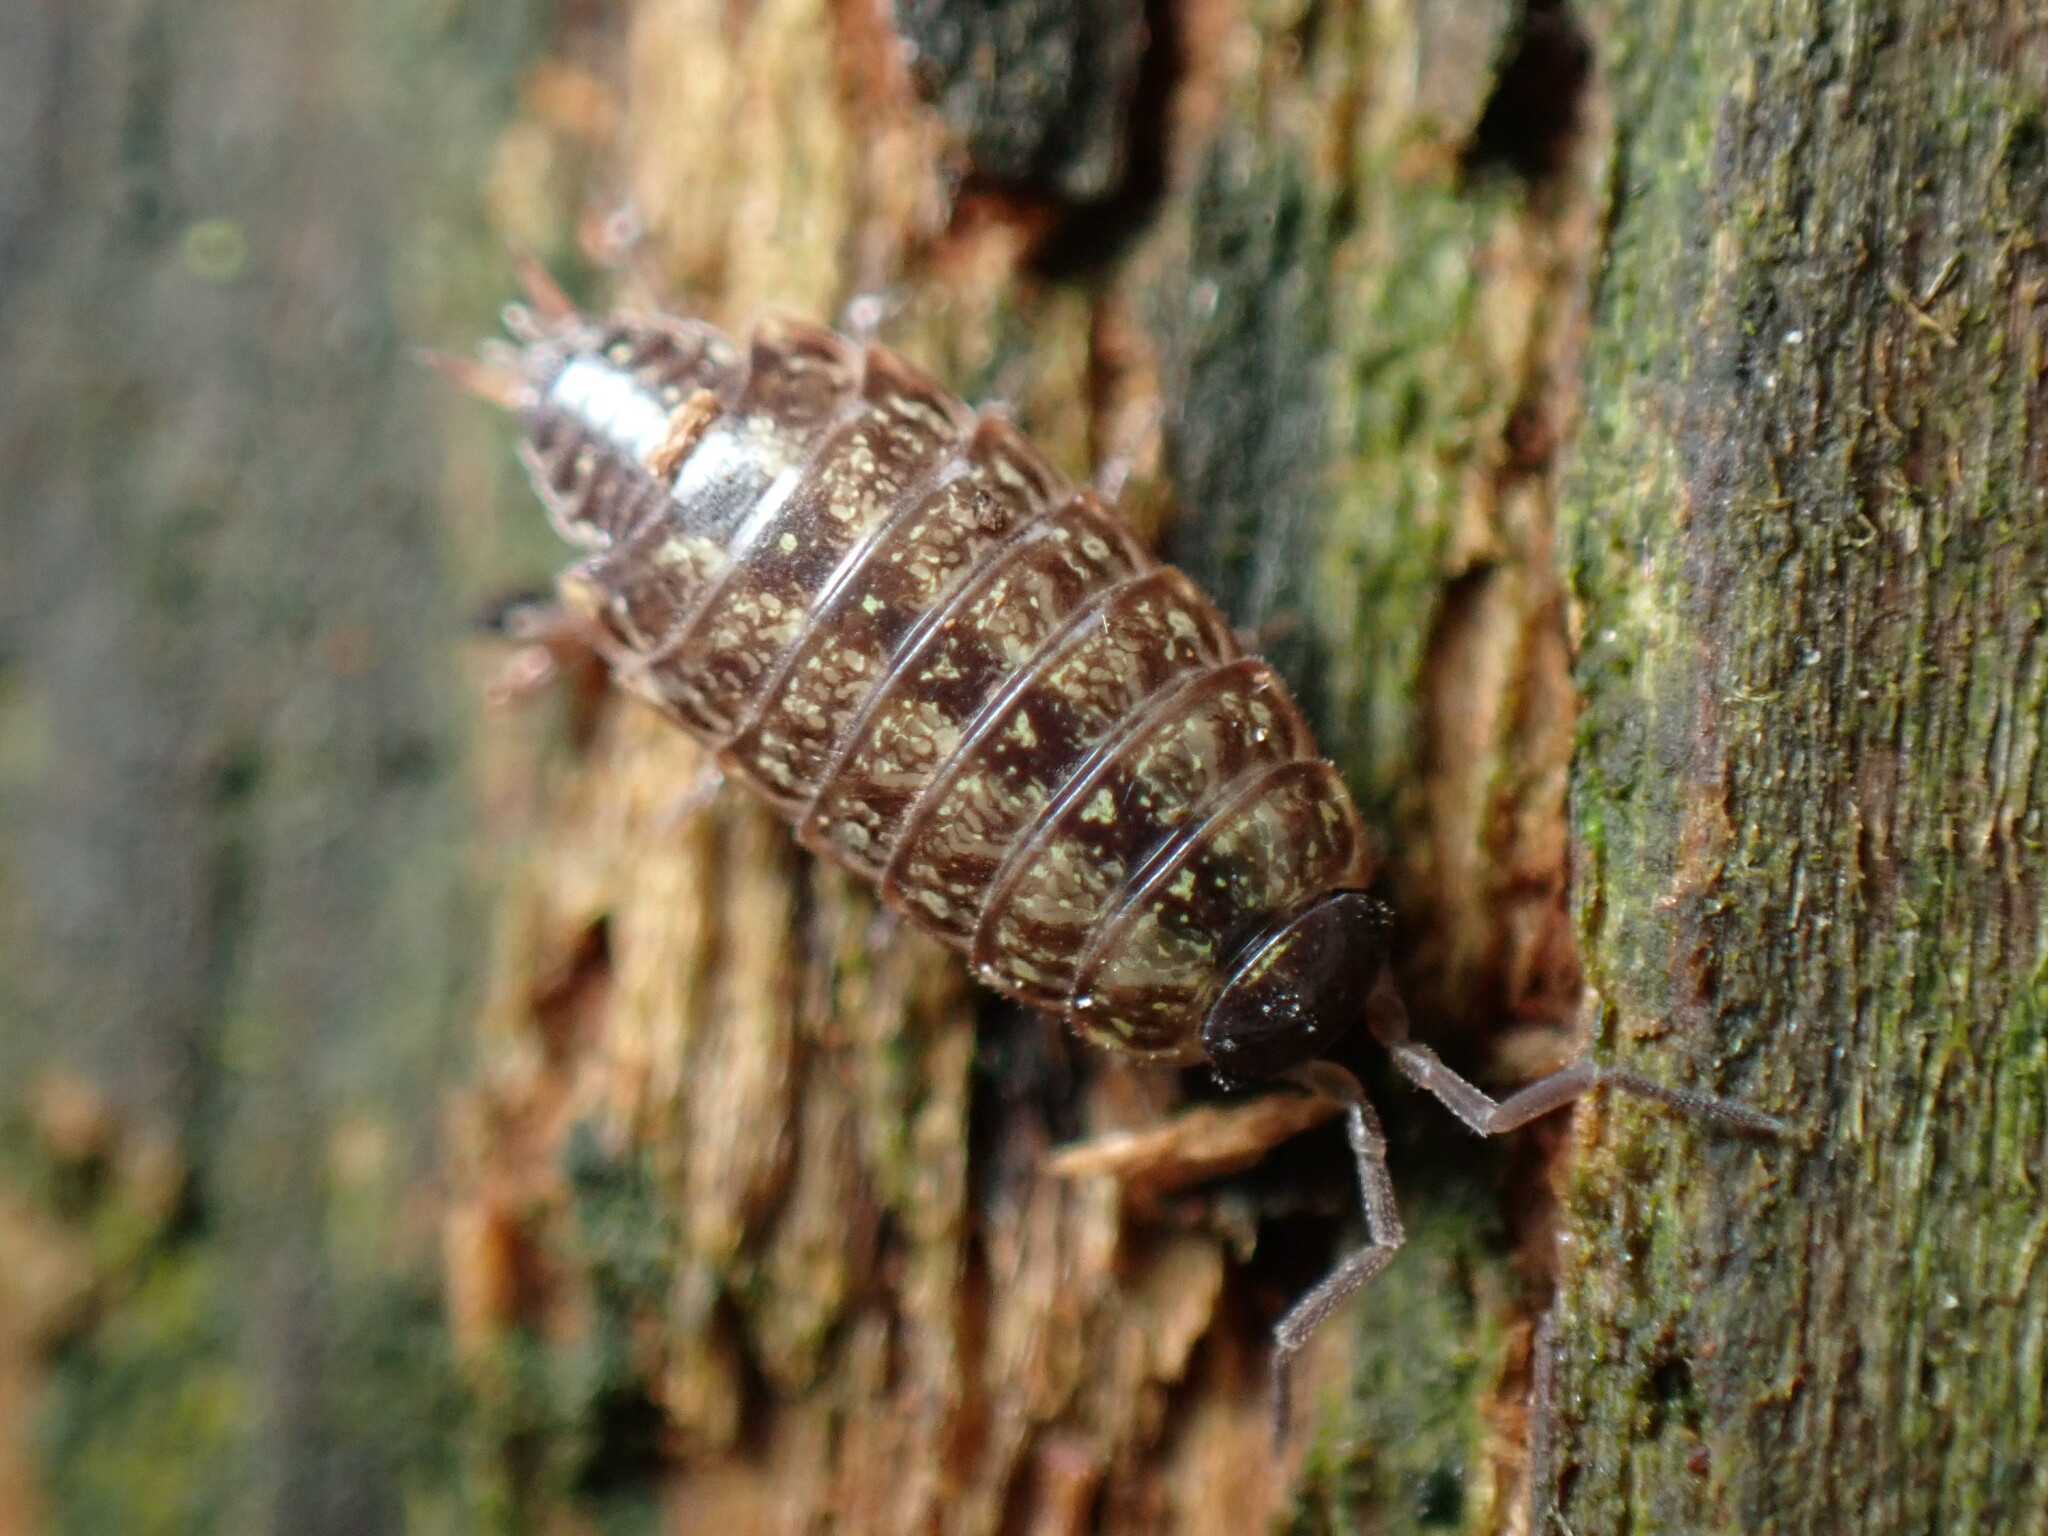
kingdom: Animalia
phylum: Arthropoda
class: Malacostraca
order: Isopoda
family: Philosciidae
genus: Philoscia
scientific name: Philoscia muscorum
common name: Common striped woodlouse
